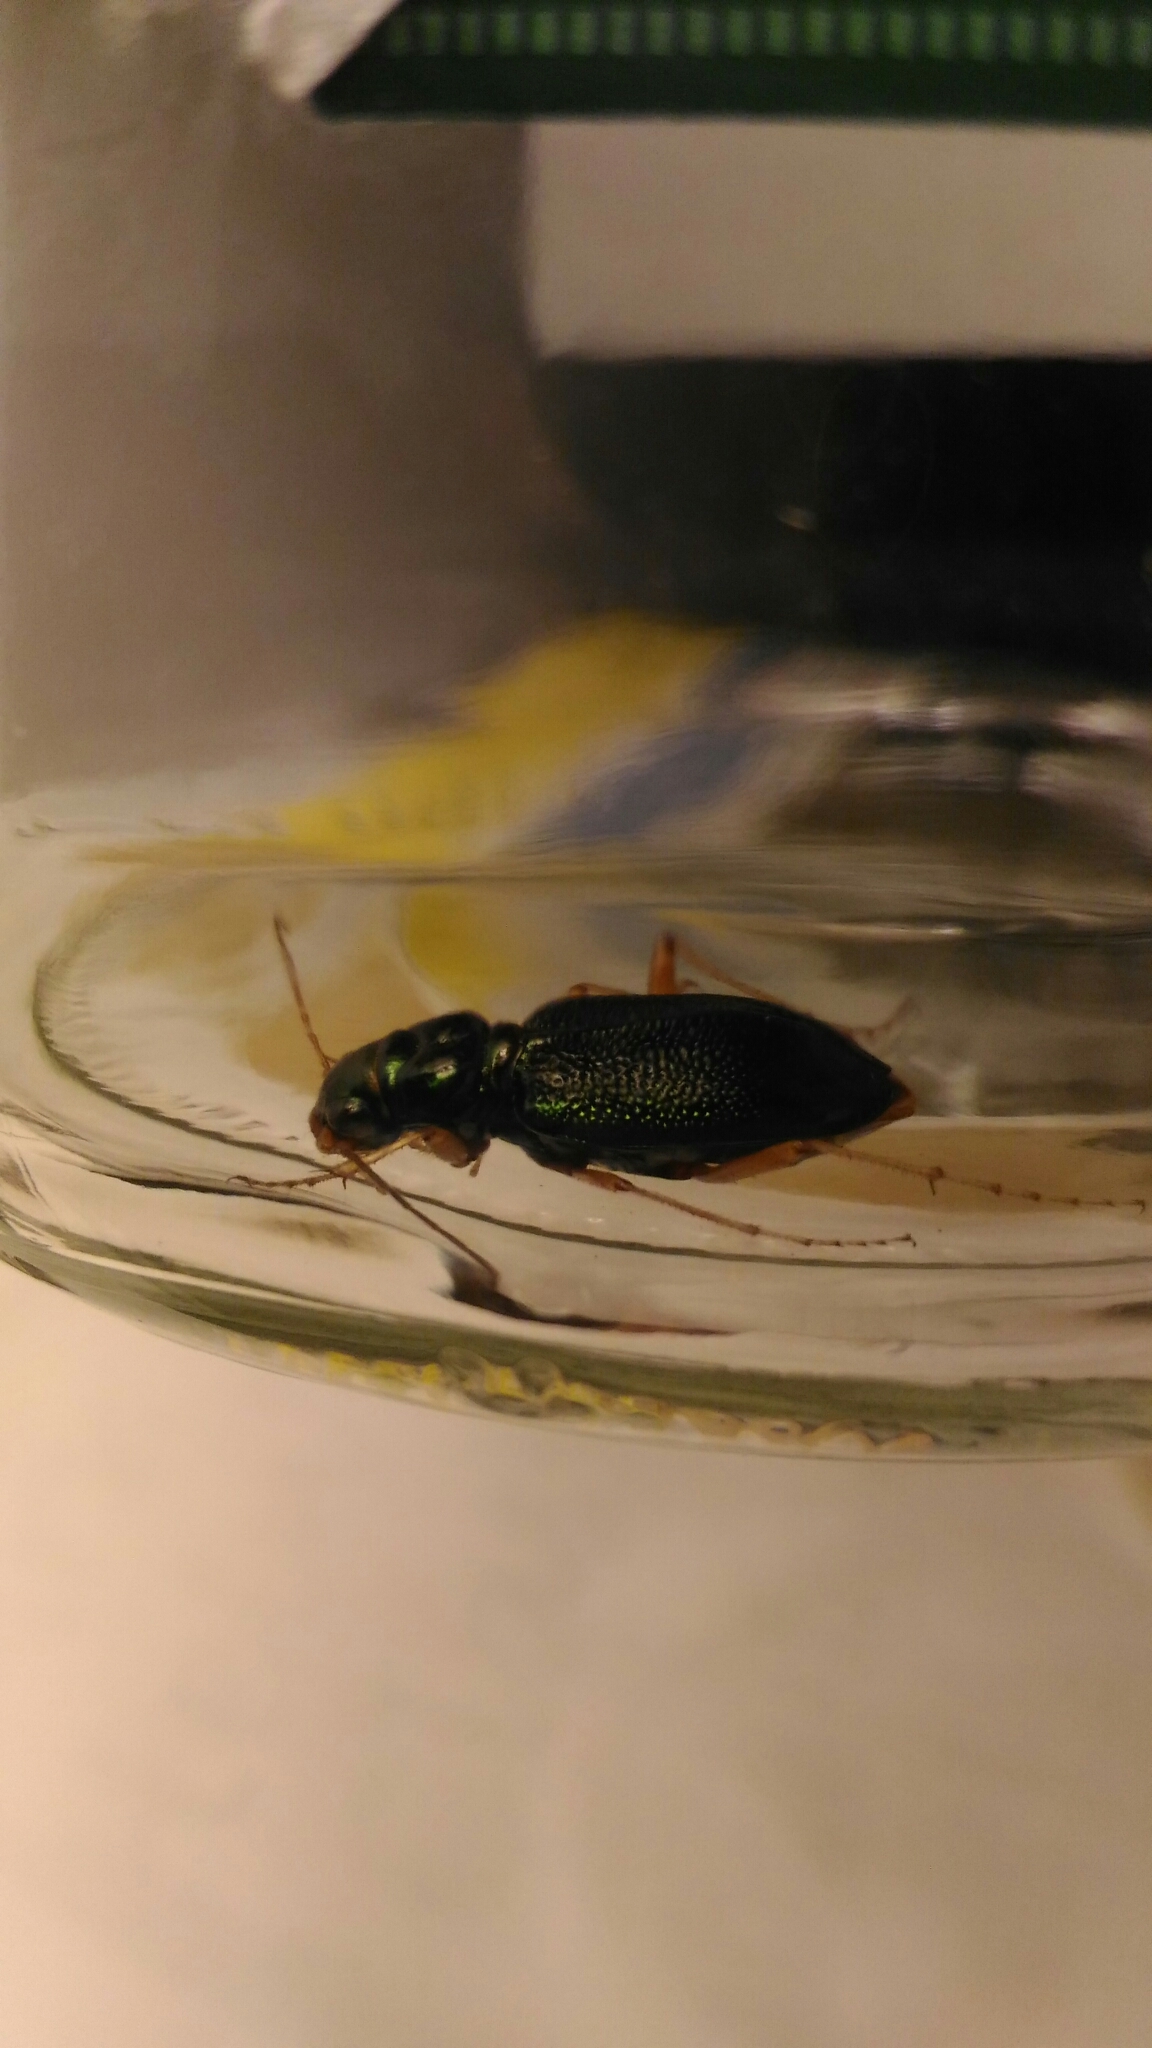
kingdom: Animalia
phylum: Arthropoda
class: Insecta
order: Coleoptera
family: Carabidae
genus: Tetracha
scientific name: Tetracha virginica
